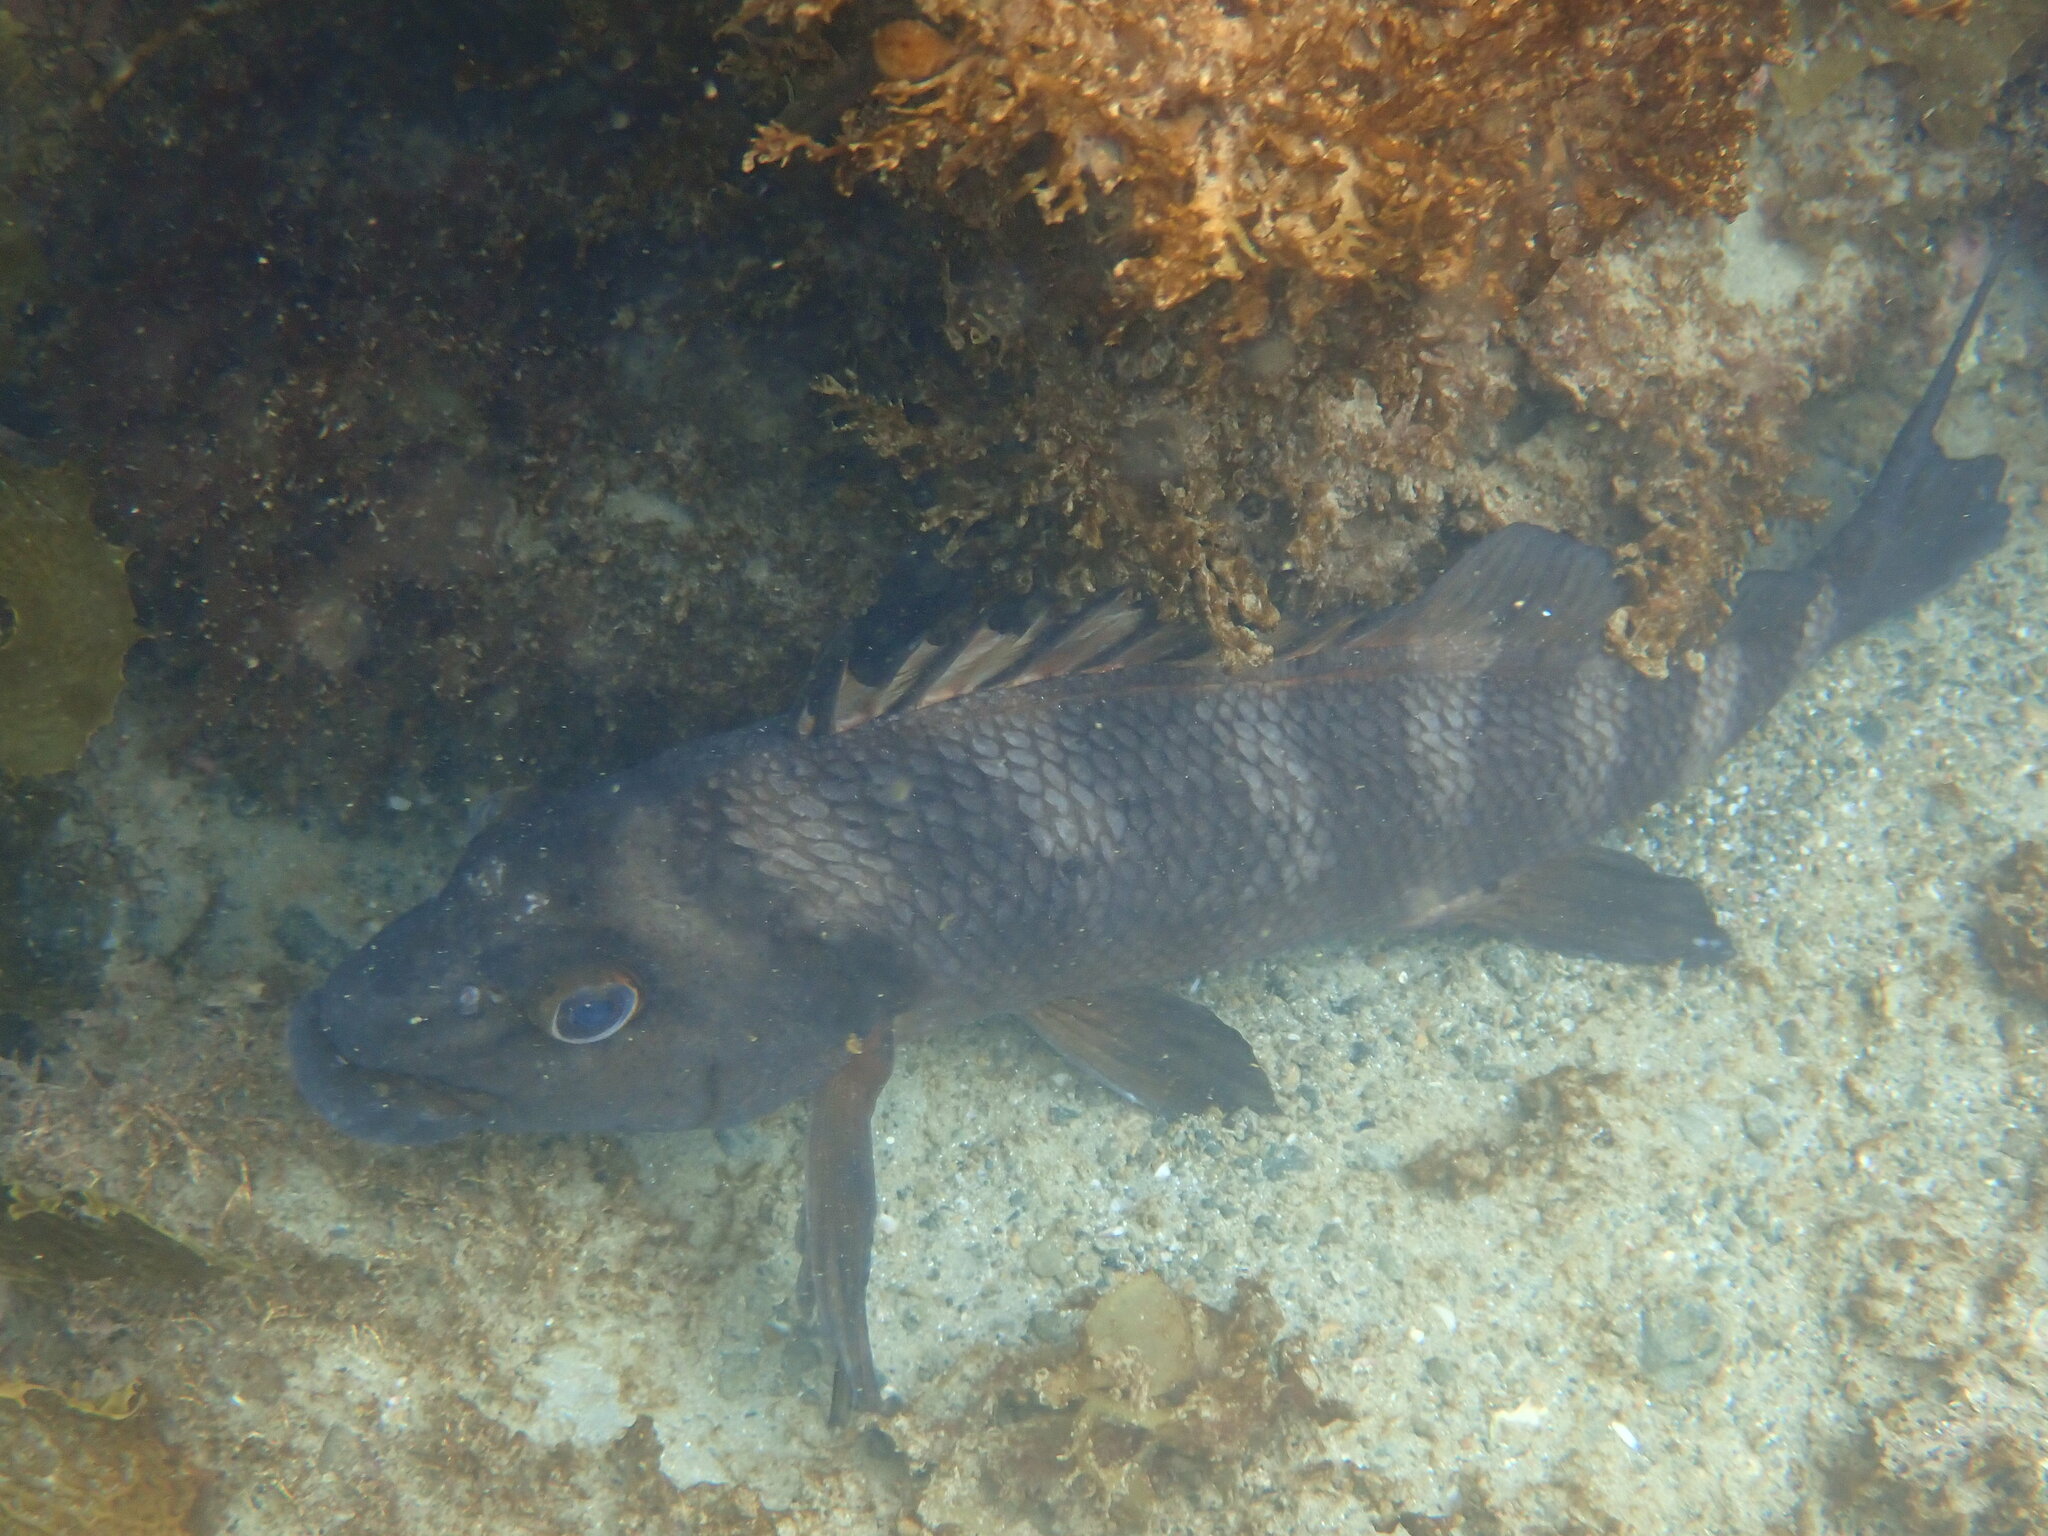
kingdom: Animalia
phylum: Chordata
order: Perciformes
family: Cheilodactylidae
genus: Cheilodactylus
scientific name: Cheilodactylus spectabilis
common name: Red moki
